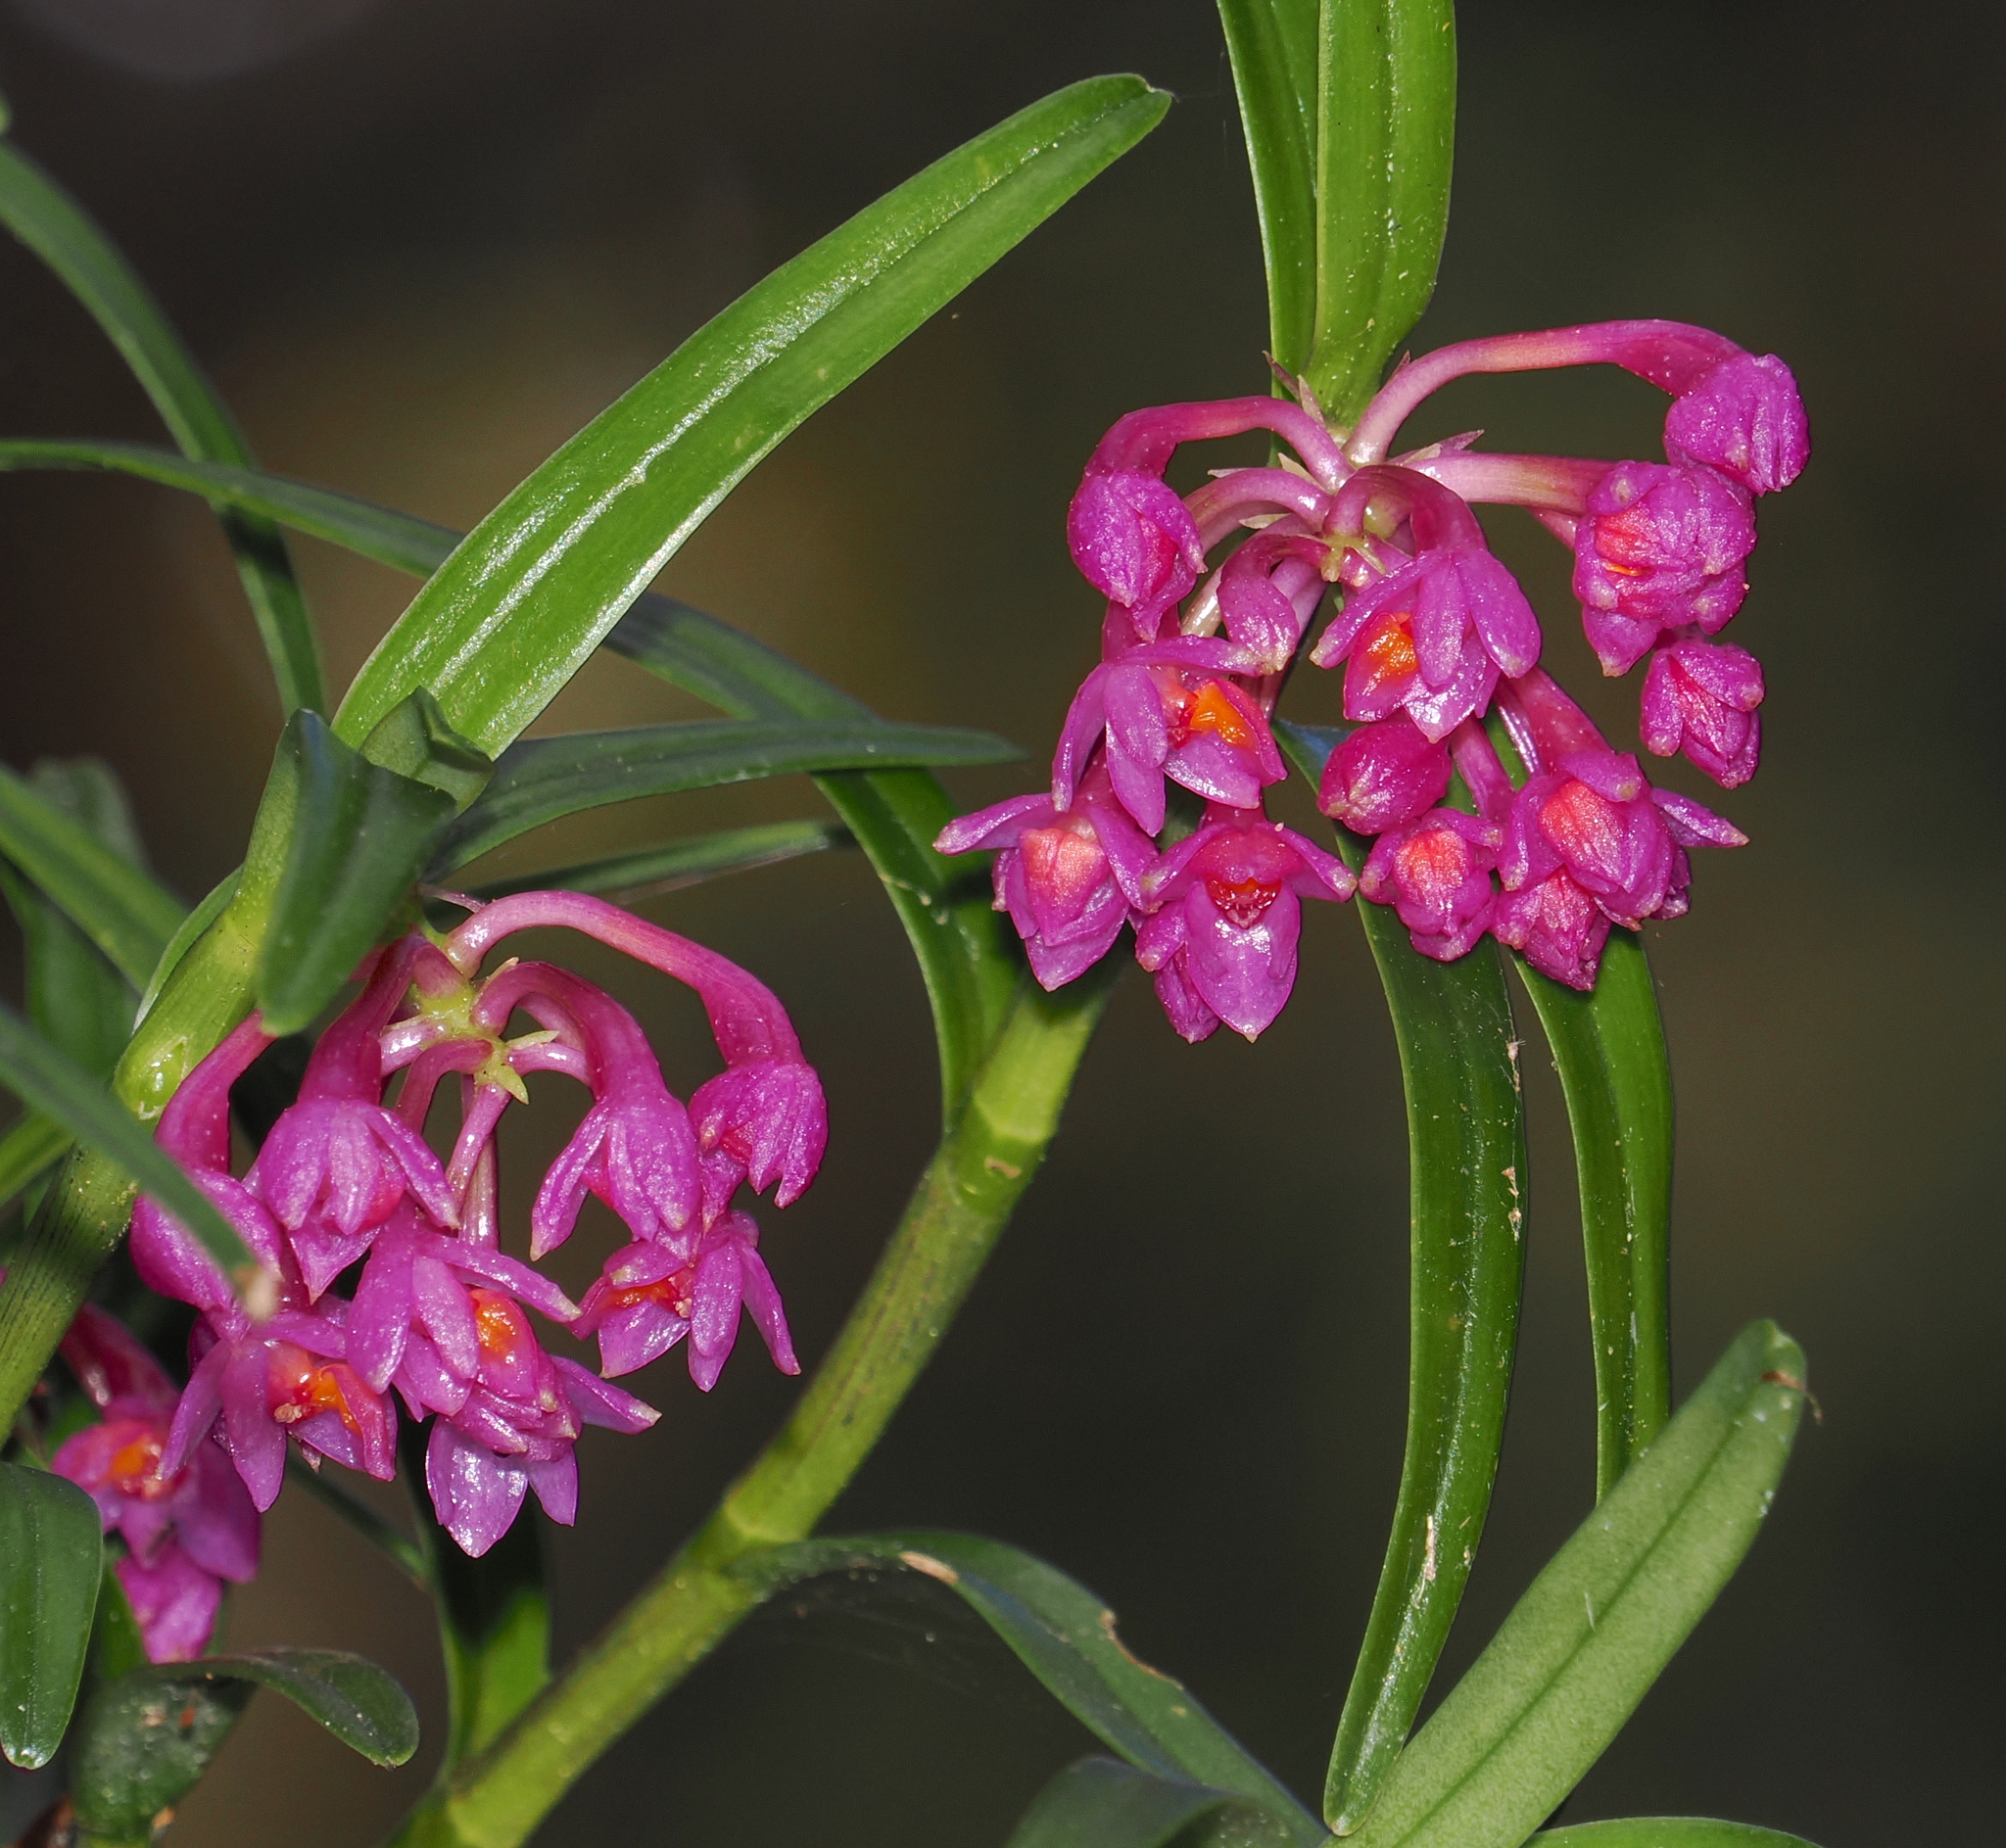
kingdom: Plantae
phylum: Tracheophyta
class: Liliopsida
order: Asparagales
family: Orchidaceae
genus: Epidendrum
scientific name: Epidendrum gastropodium
